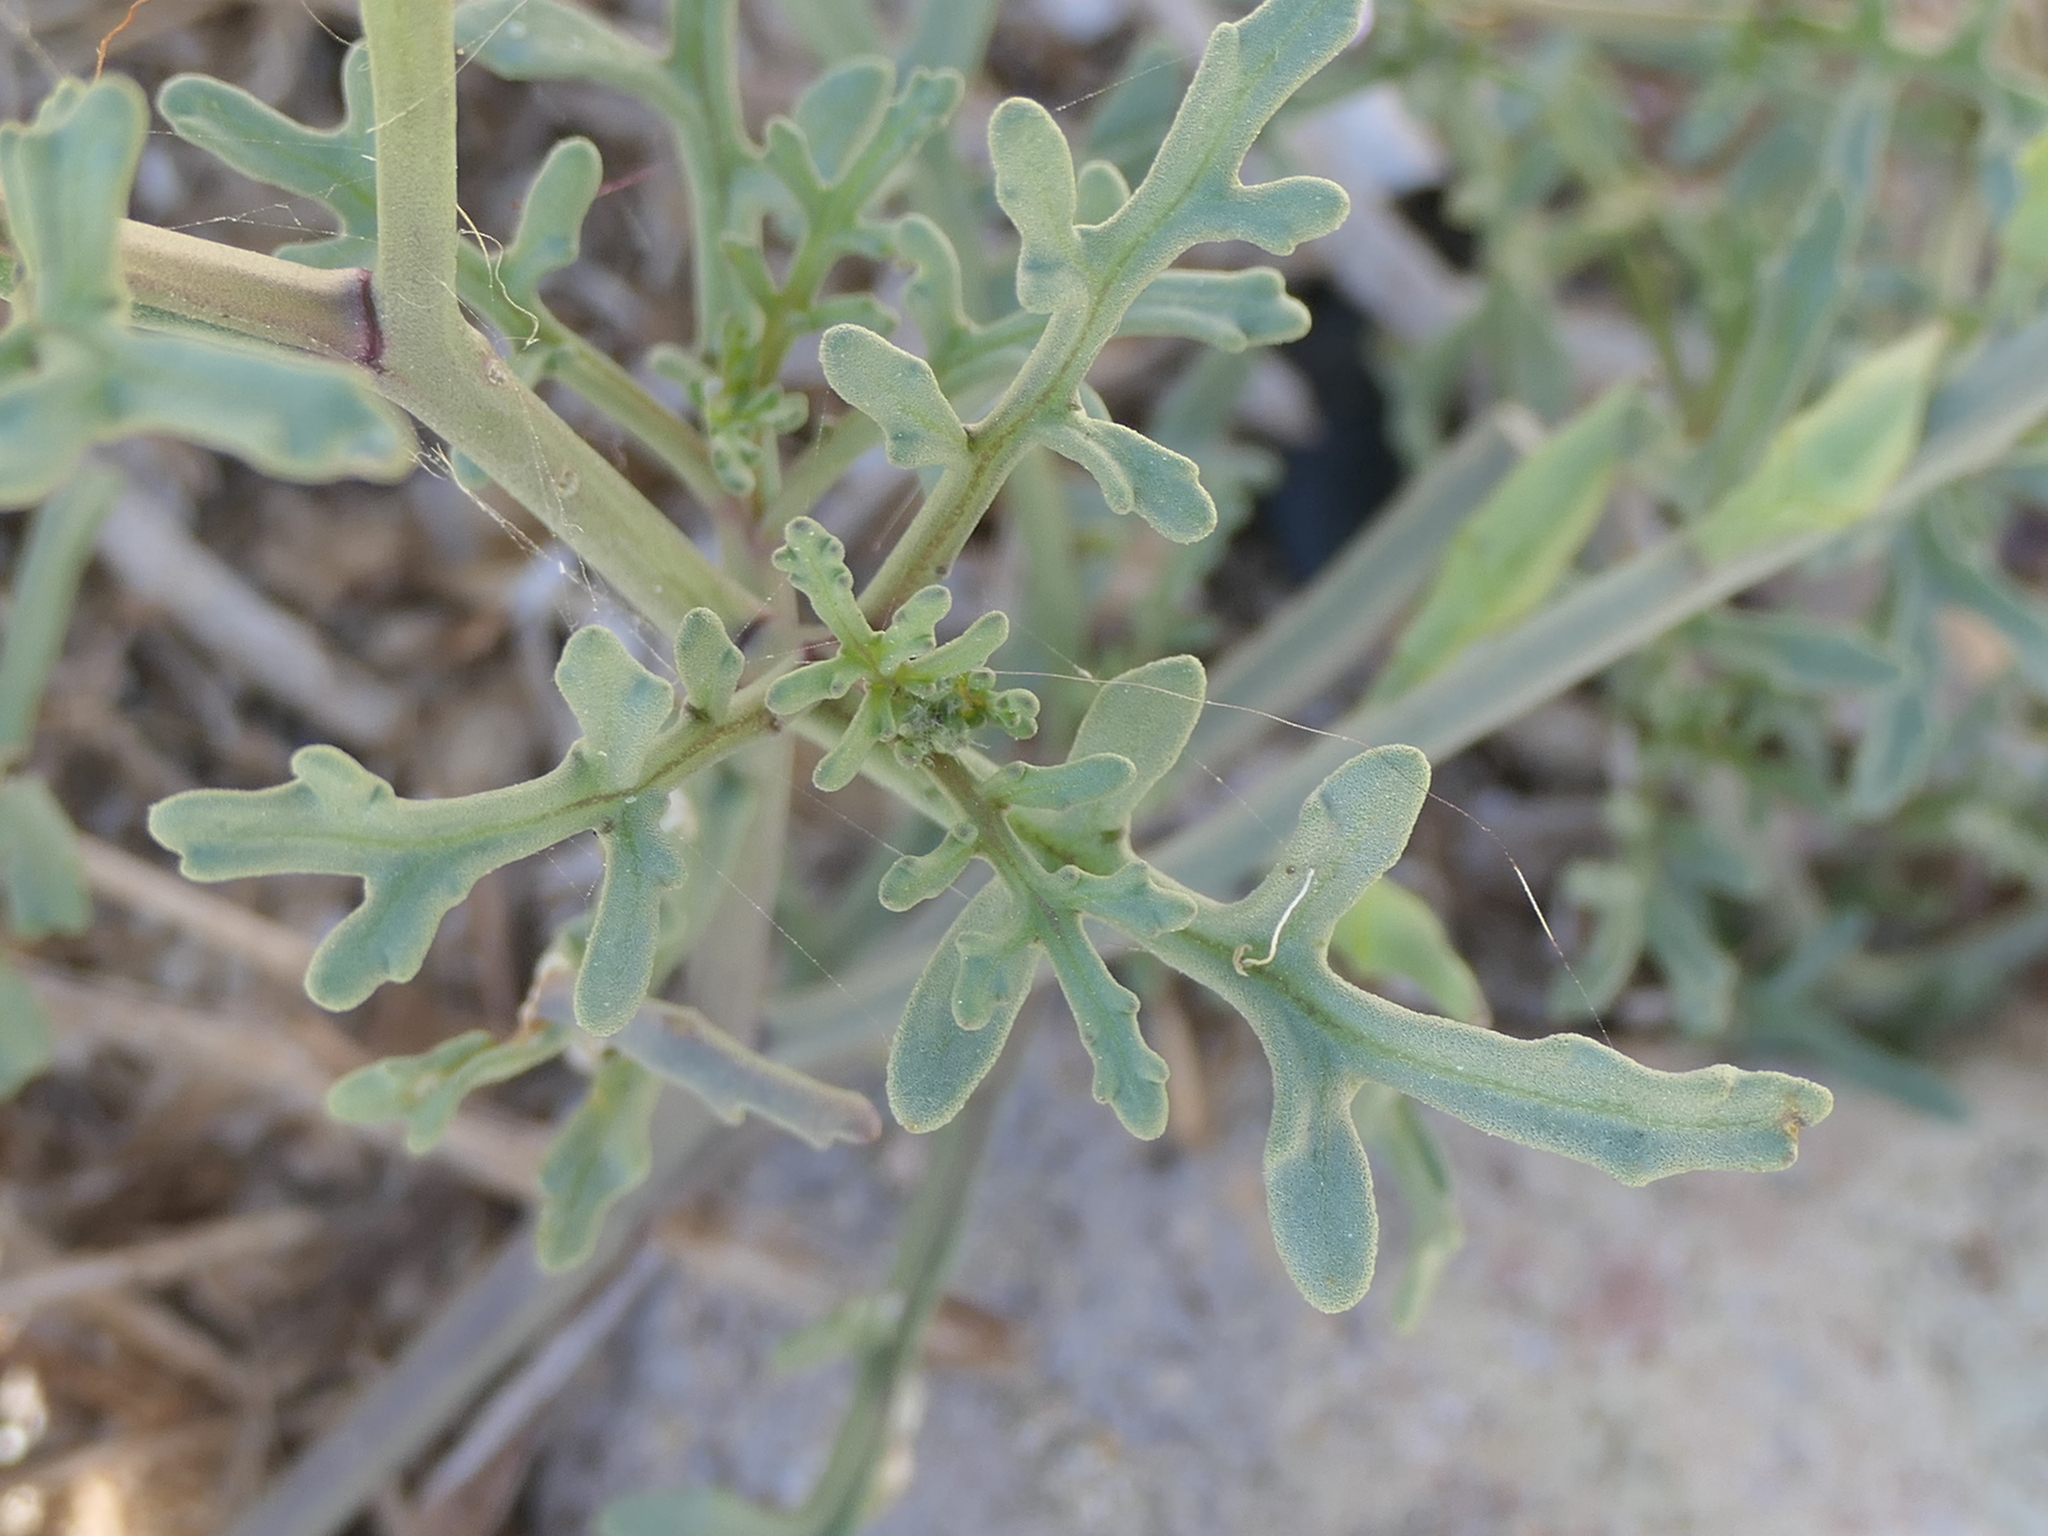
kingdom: Plantae
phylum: Tracheophyta
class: Magnoliopsida
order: Brassicales
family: Brassicaceae
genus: Cakile
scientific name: Cakile maritima
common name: Sea rocket
